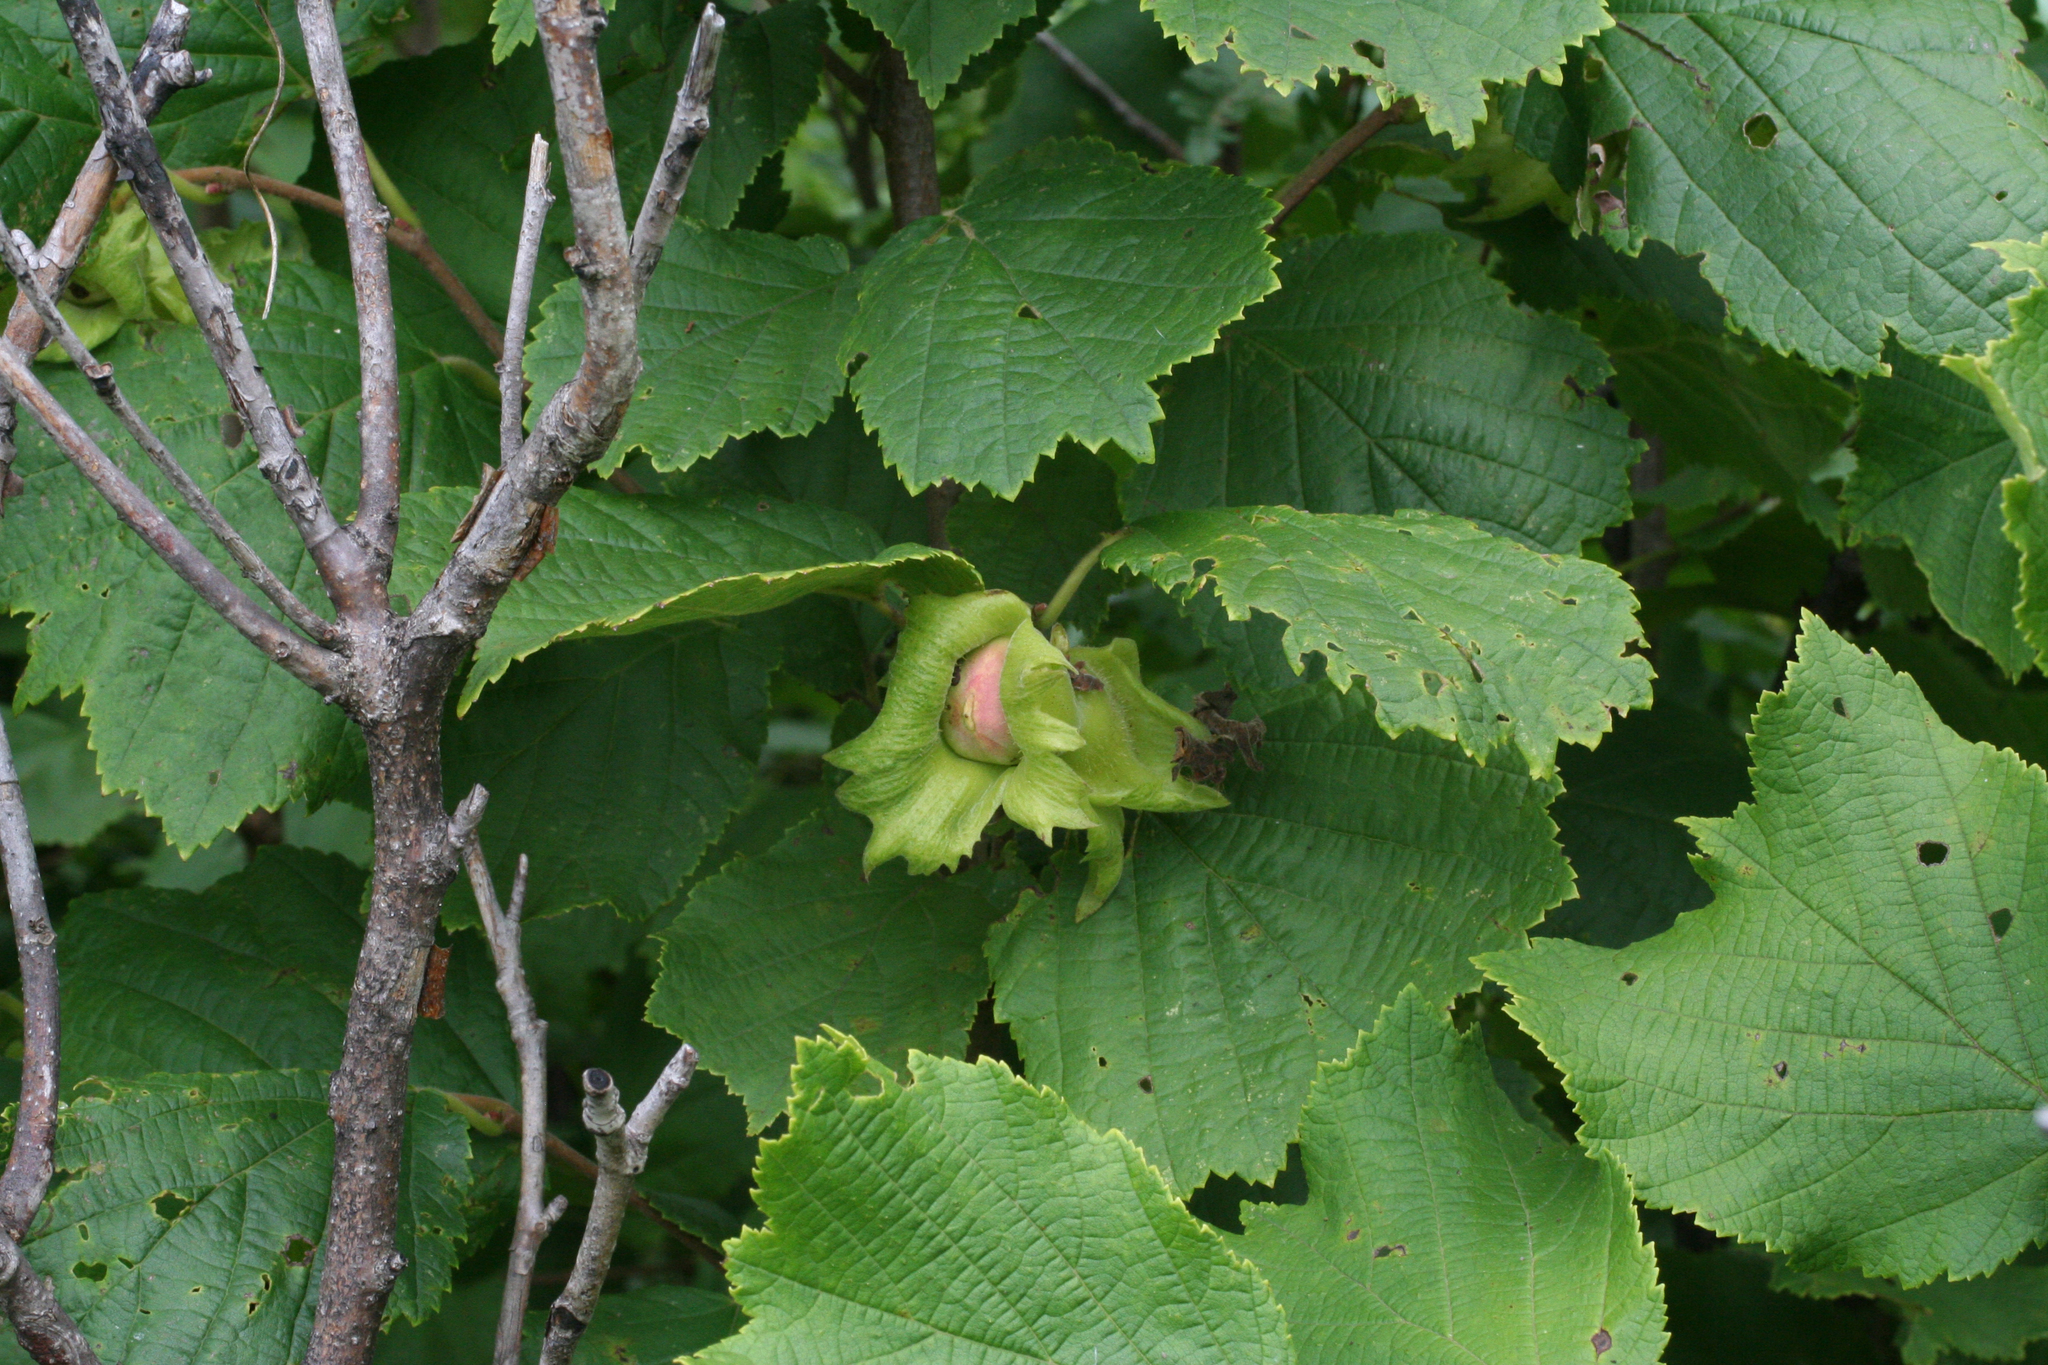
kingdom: Plantae
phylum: Tracheophyta
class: Magnoliopsida
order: Fagales
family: Betulaceae
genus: Corylus
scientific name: Corylus heterophylla
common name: Siberian hazelnut
